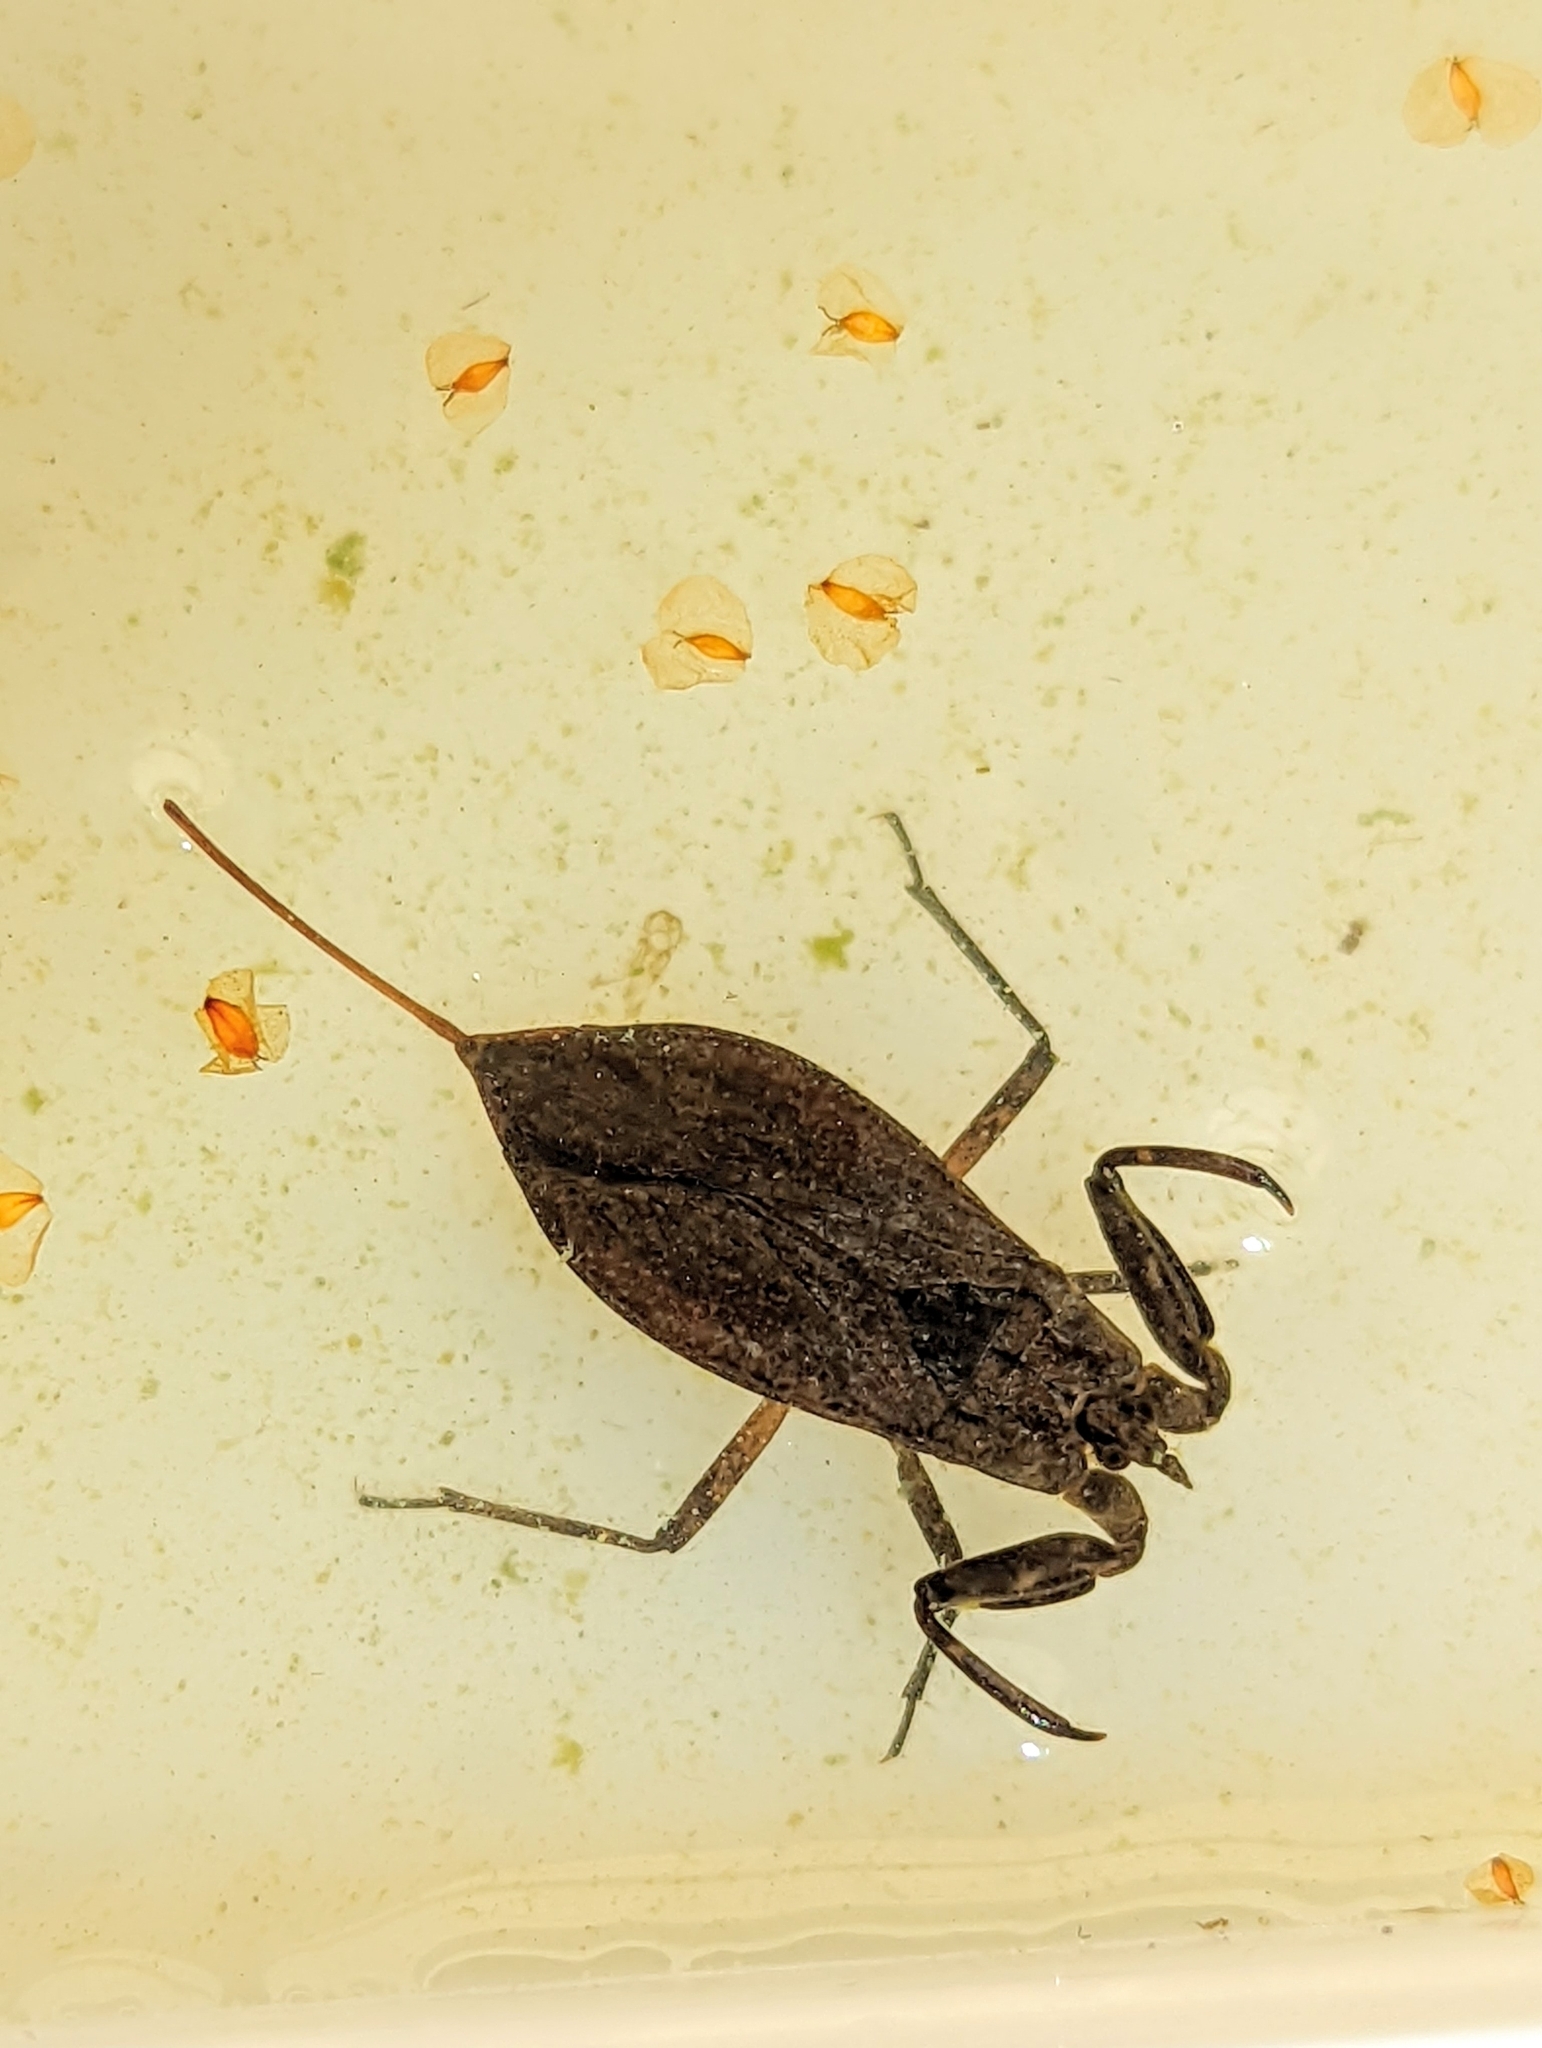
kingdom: Animalia
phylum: Arthropoda
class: Insecta
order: Hemiptera
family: Nepidae
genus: Nepa
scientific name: Nepa cinerea
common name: Water scorpion
